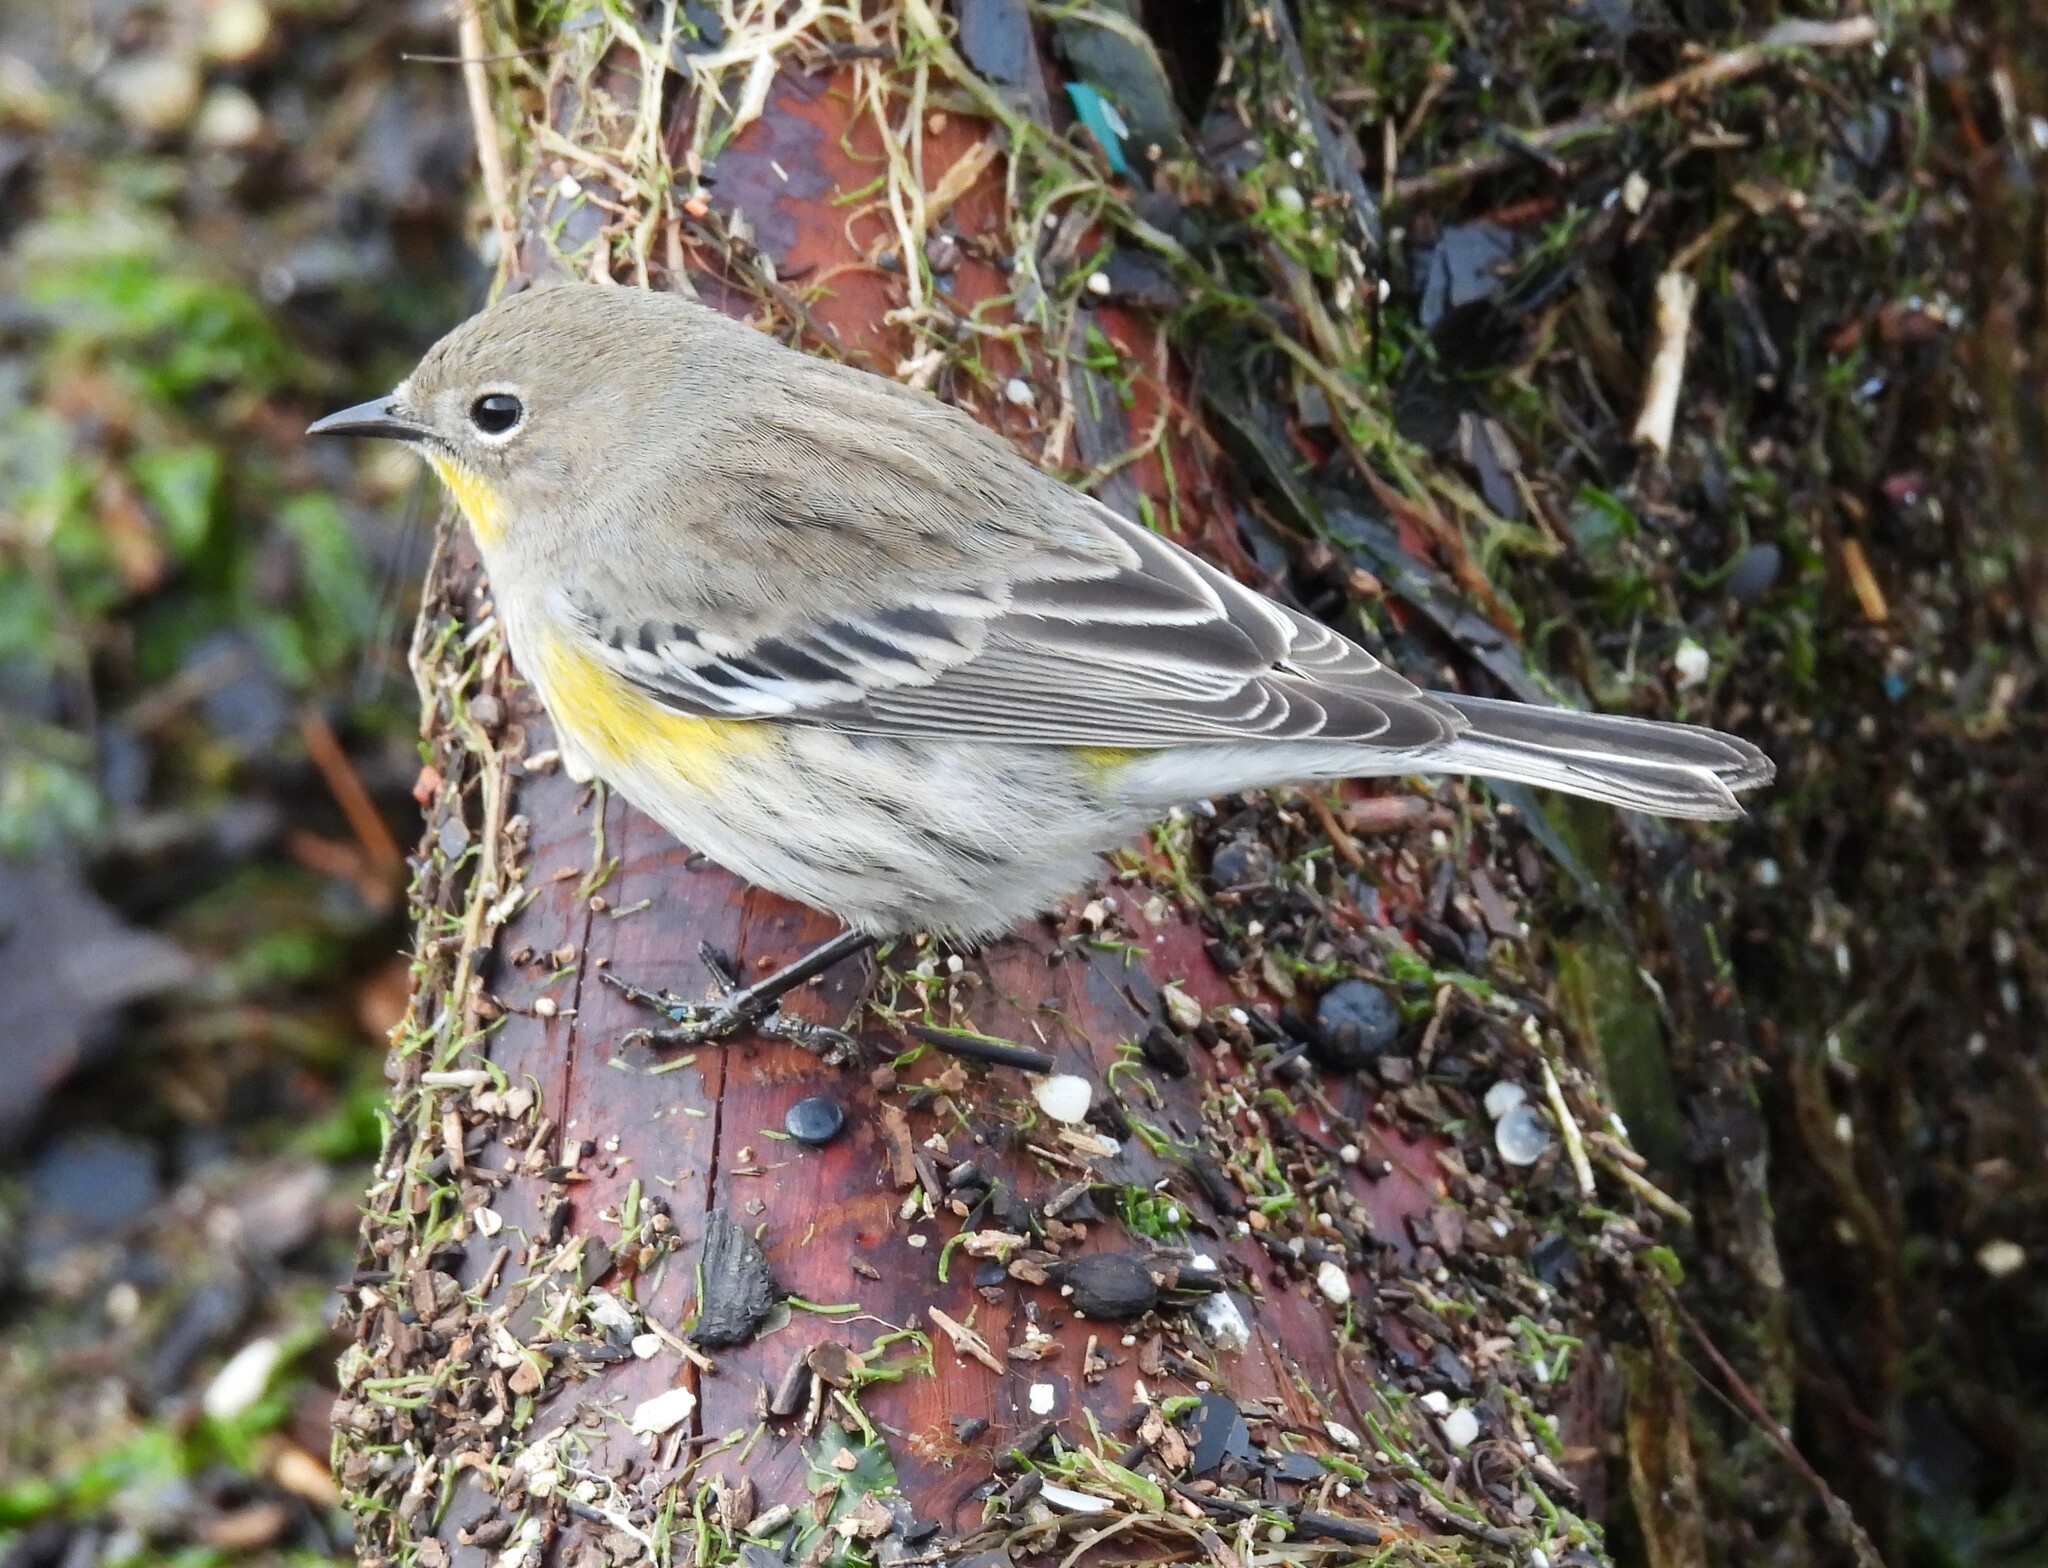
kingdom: Animalia
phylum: Chordata
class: Aves
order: Passeriformes
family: Parulidae
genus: Setophaga
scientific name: Setophaga coronata
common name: Myrtle warbler
